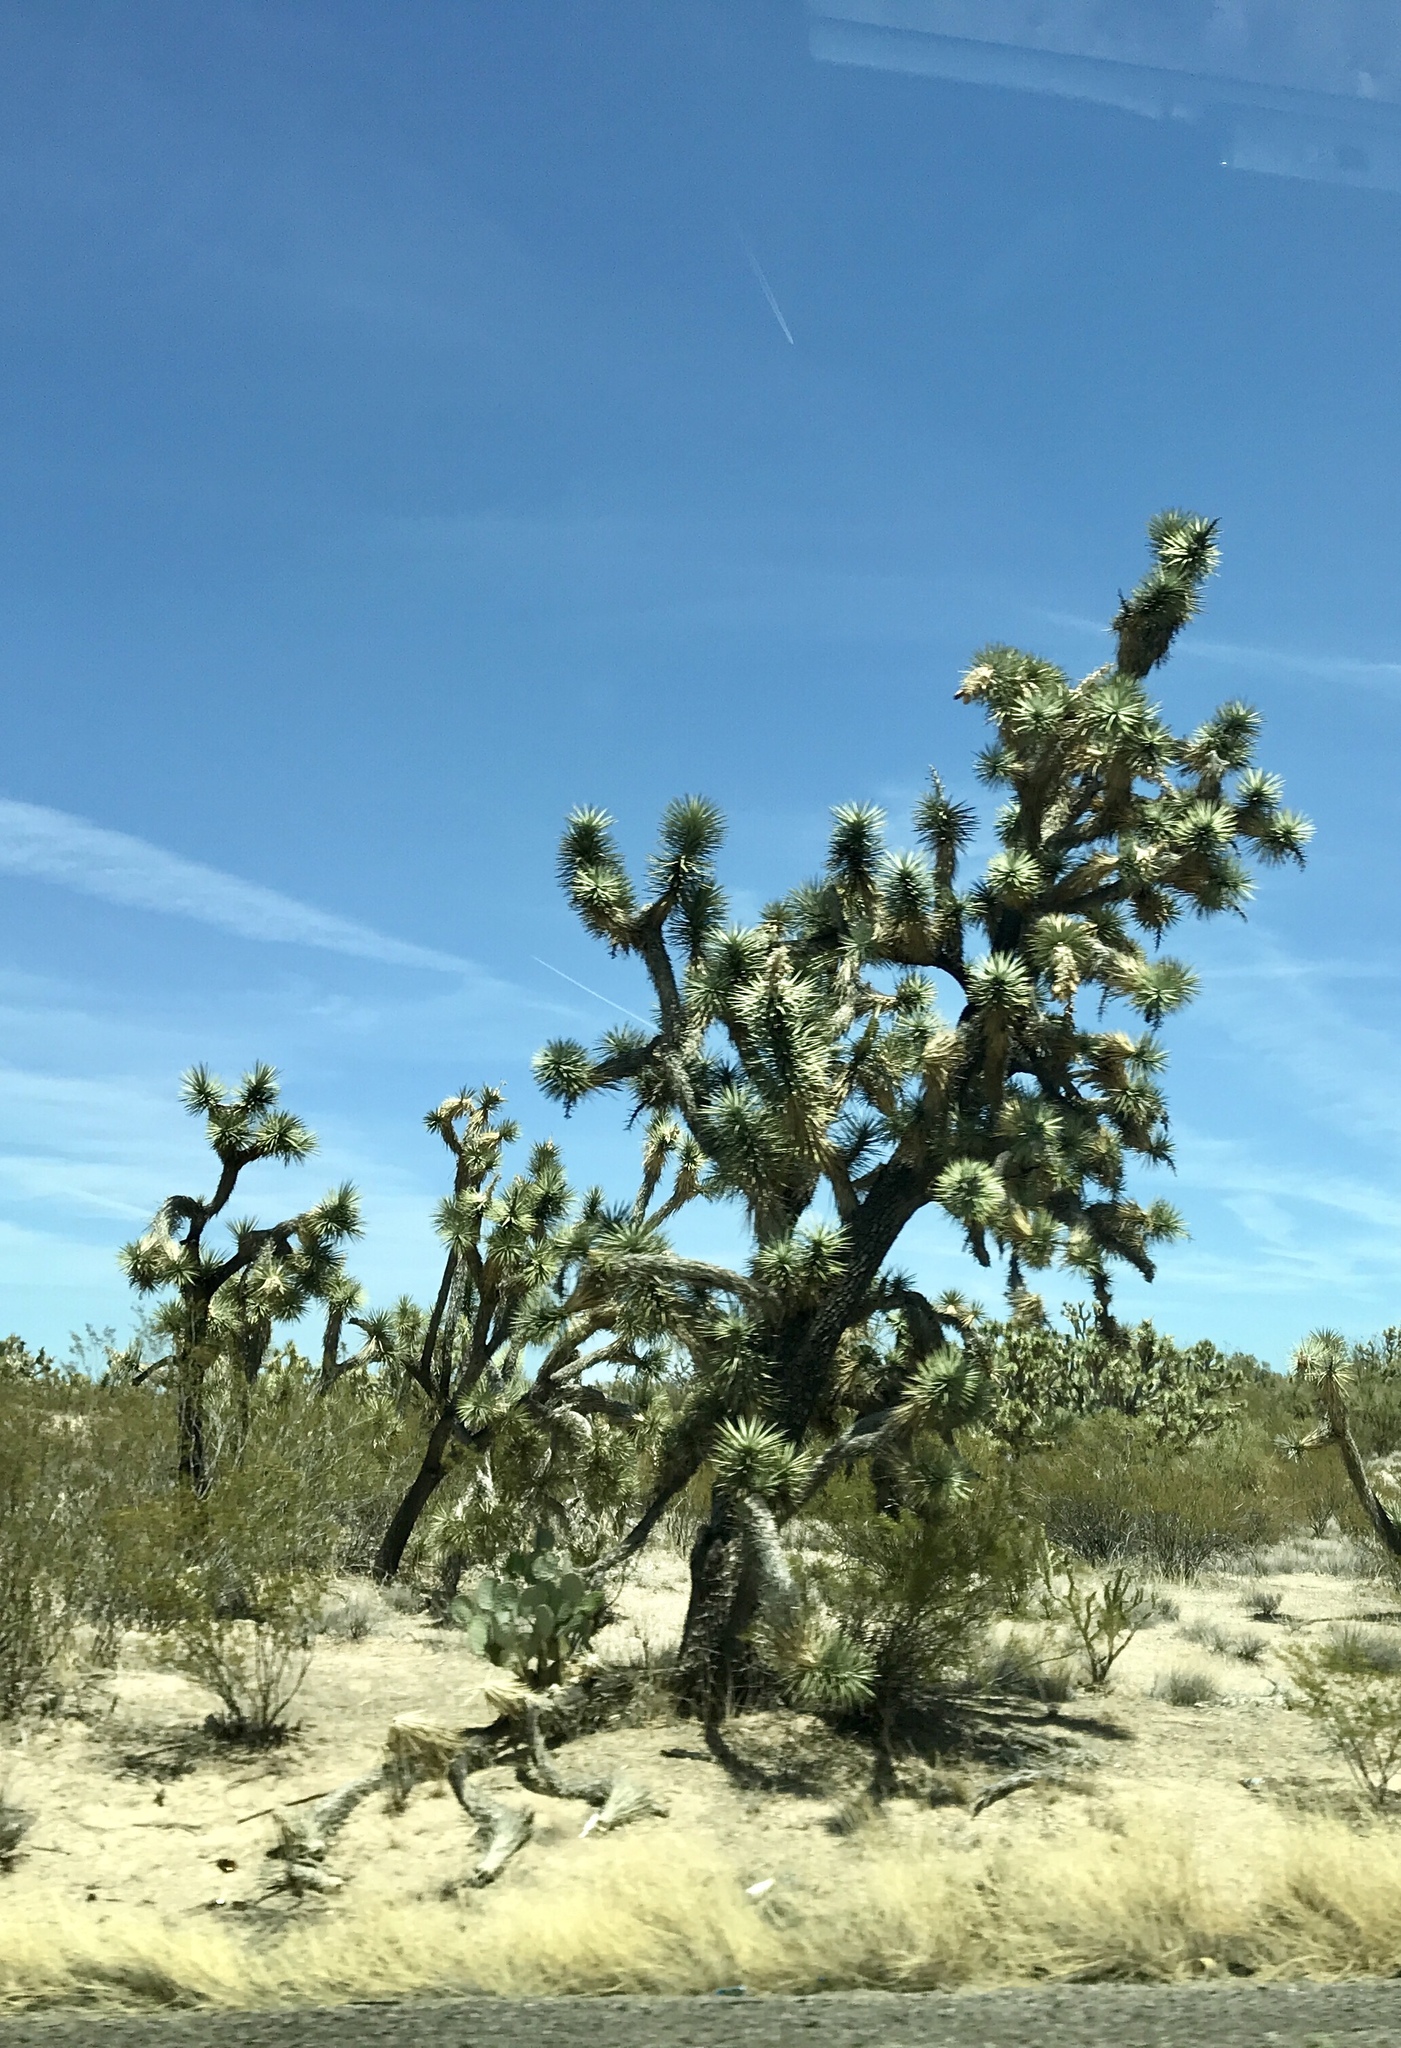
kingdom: Plantae
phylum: Tracheophyta
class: Liliopsida
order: Asparagales
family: Asparagaceae
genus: Yucca
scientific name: Yucca brevifolia
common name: Joshua tree
